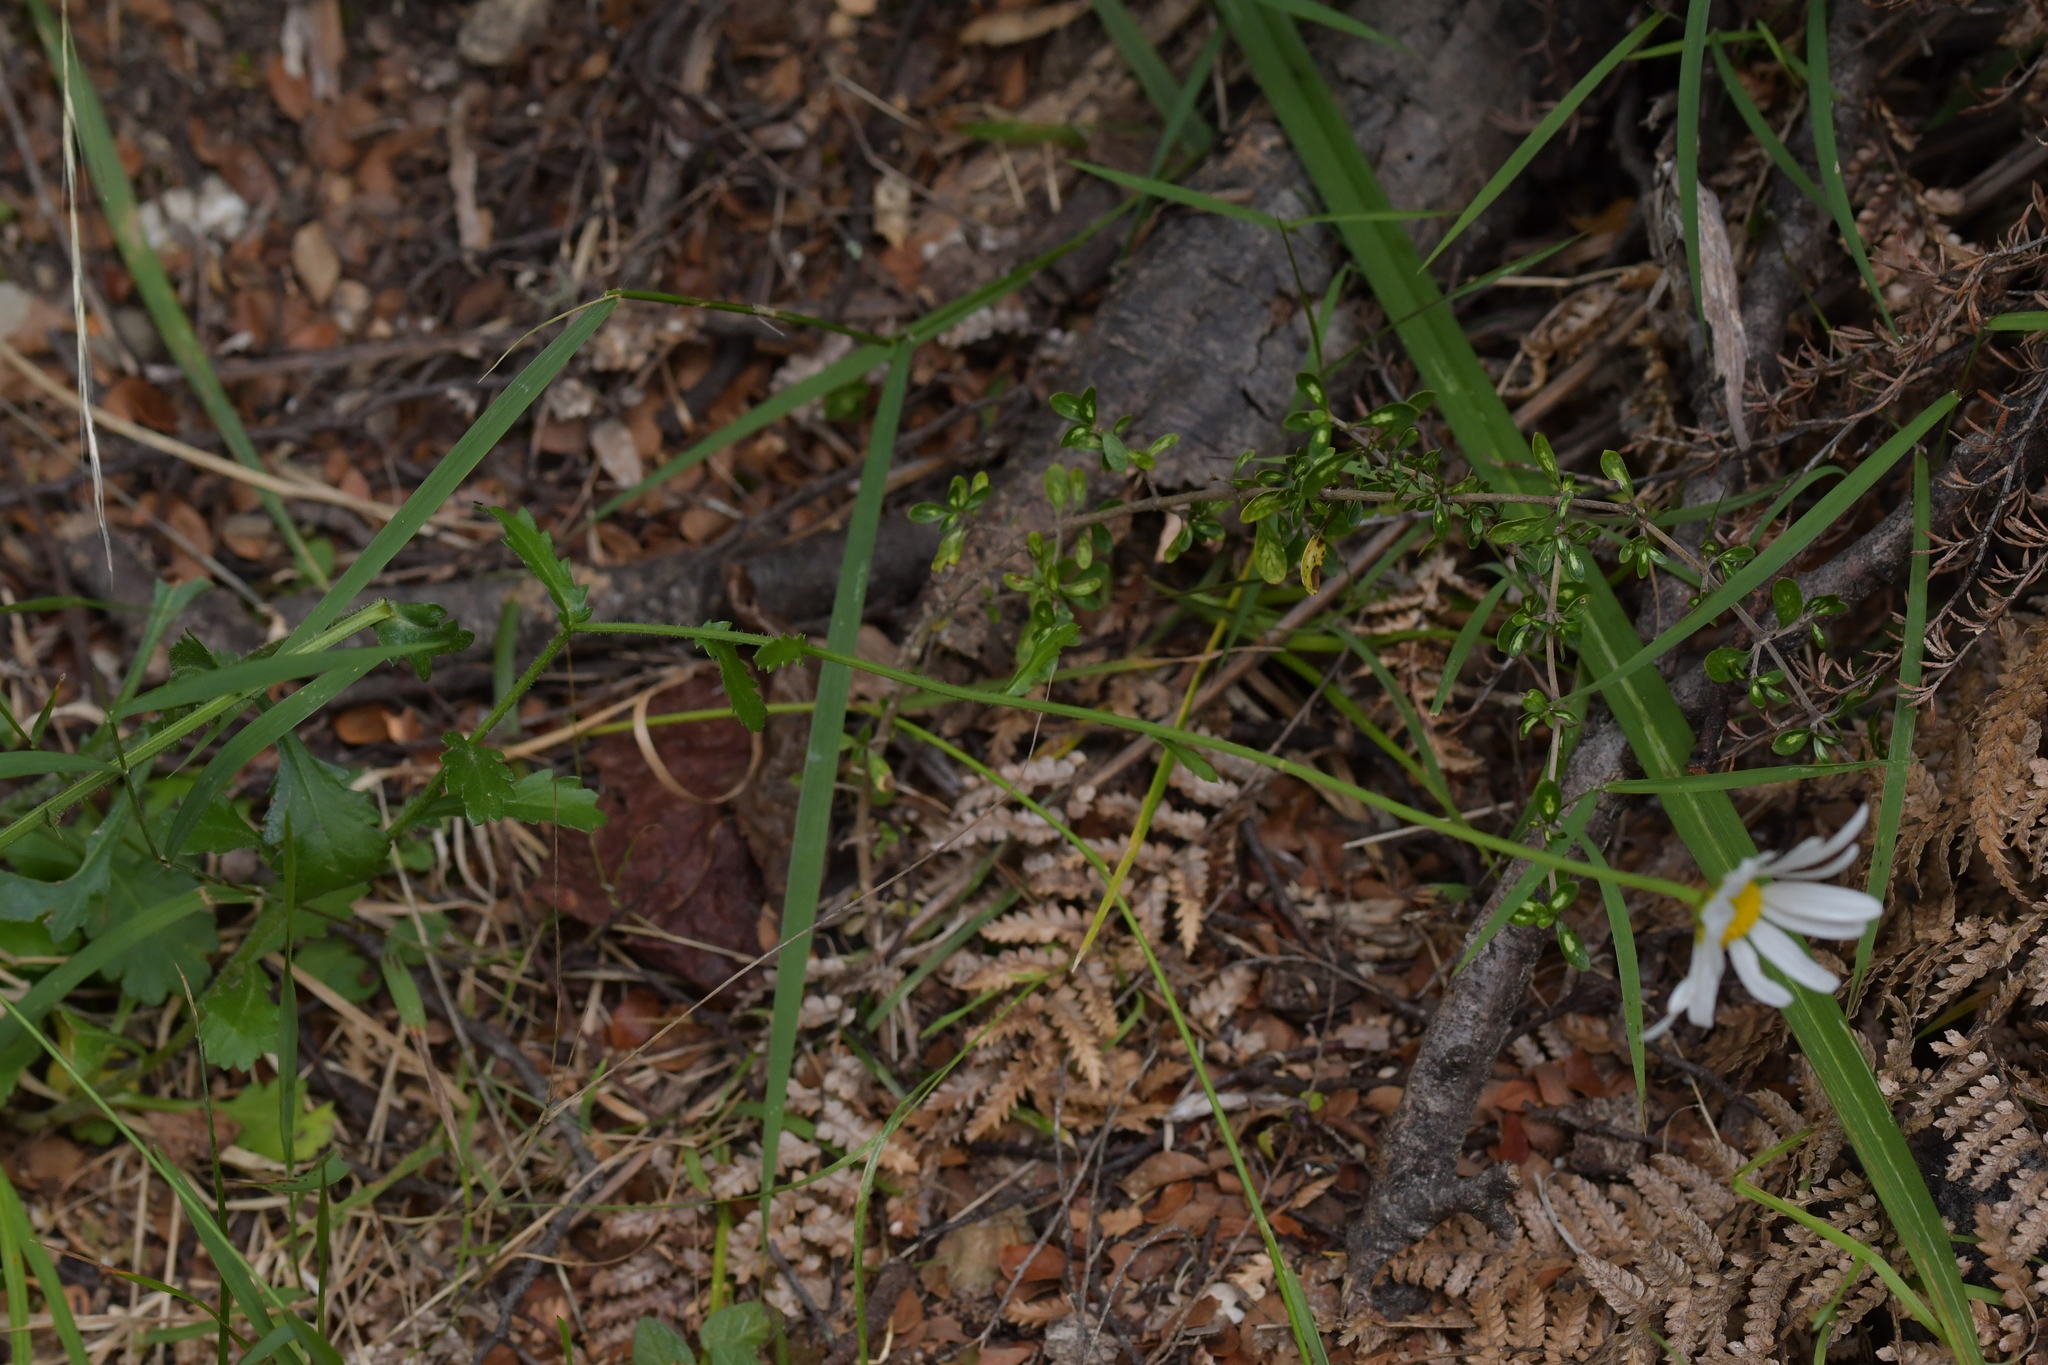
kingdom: Plantae
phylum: Tracheophyta
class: Magnoliopsida
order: Asterales
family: Asteraceae
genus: Leucanthemum
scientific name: Leucanthemum vulgare
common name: Oxeye daisy
